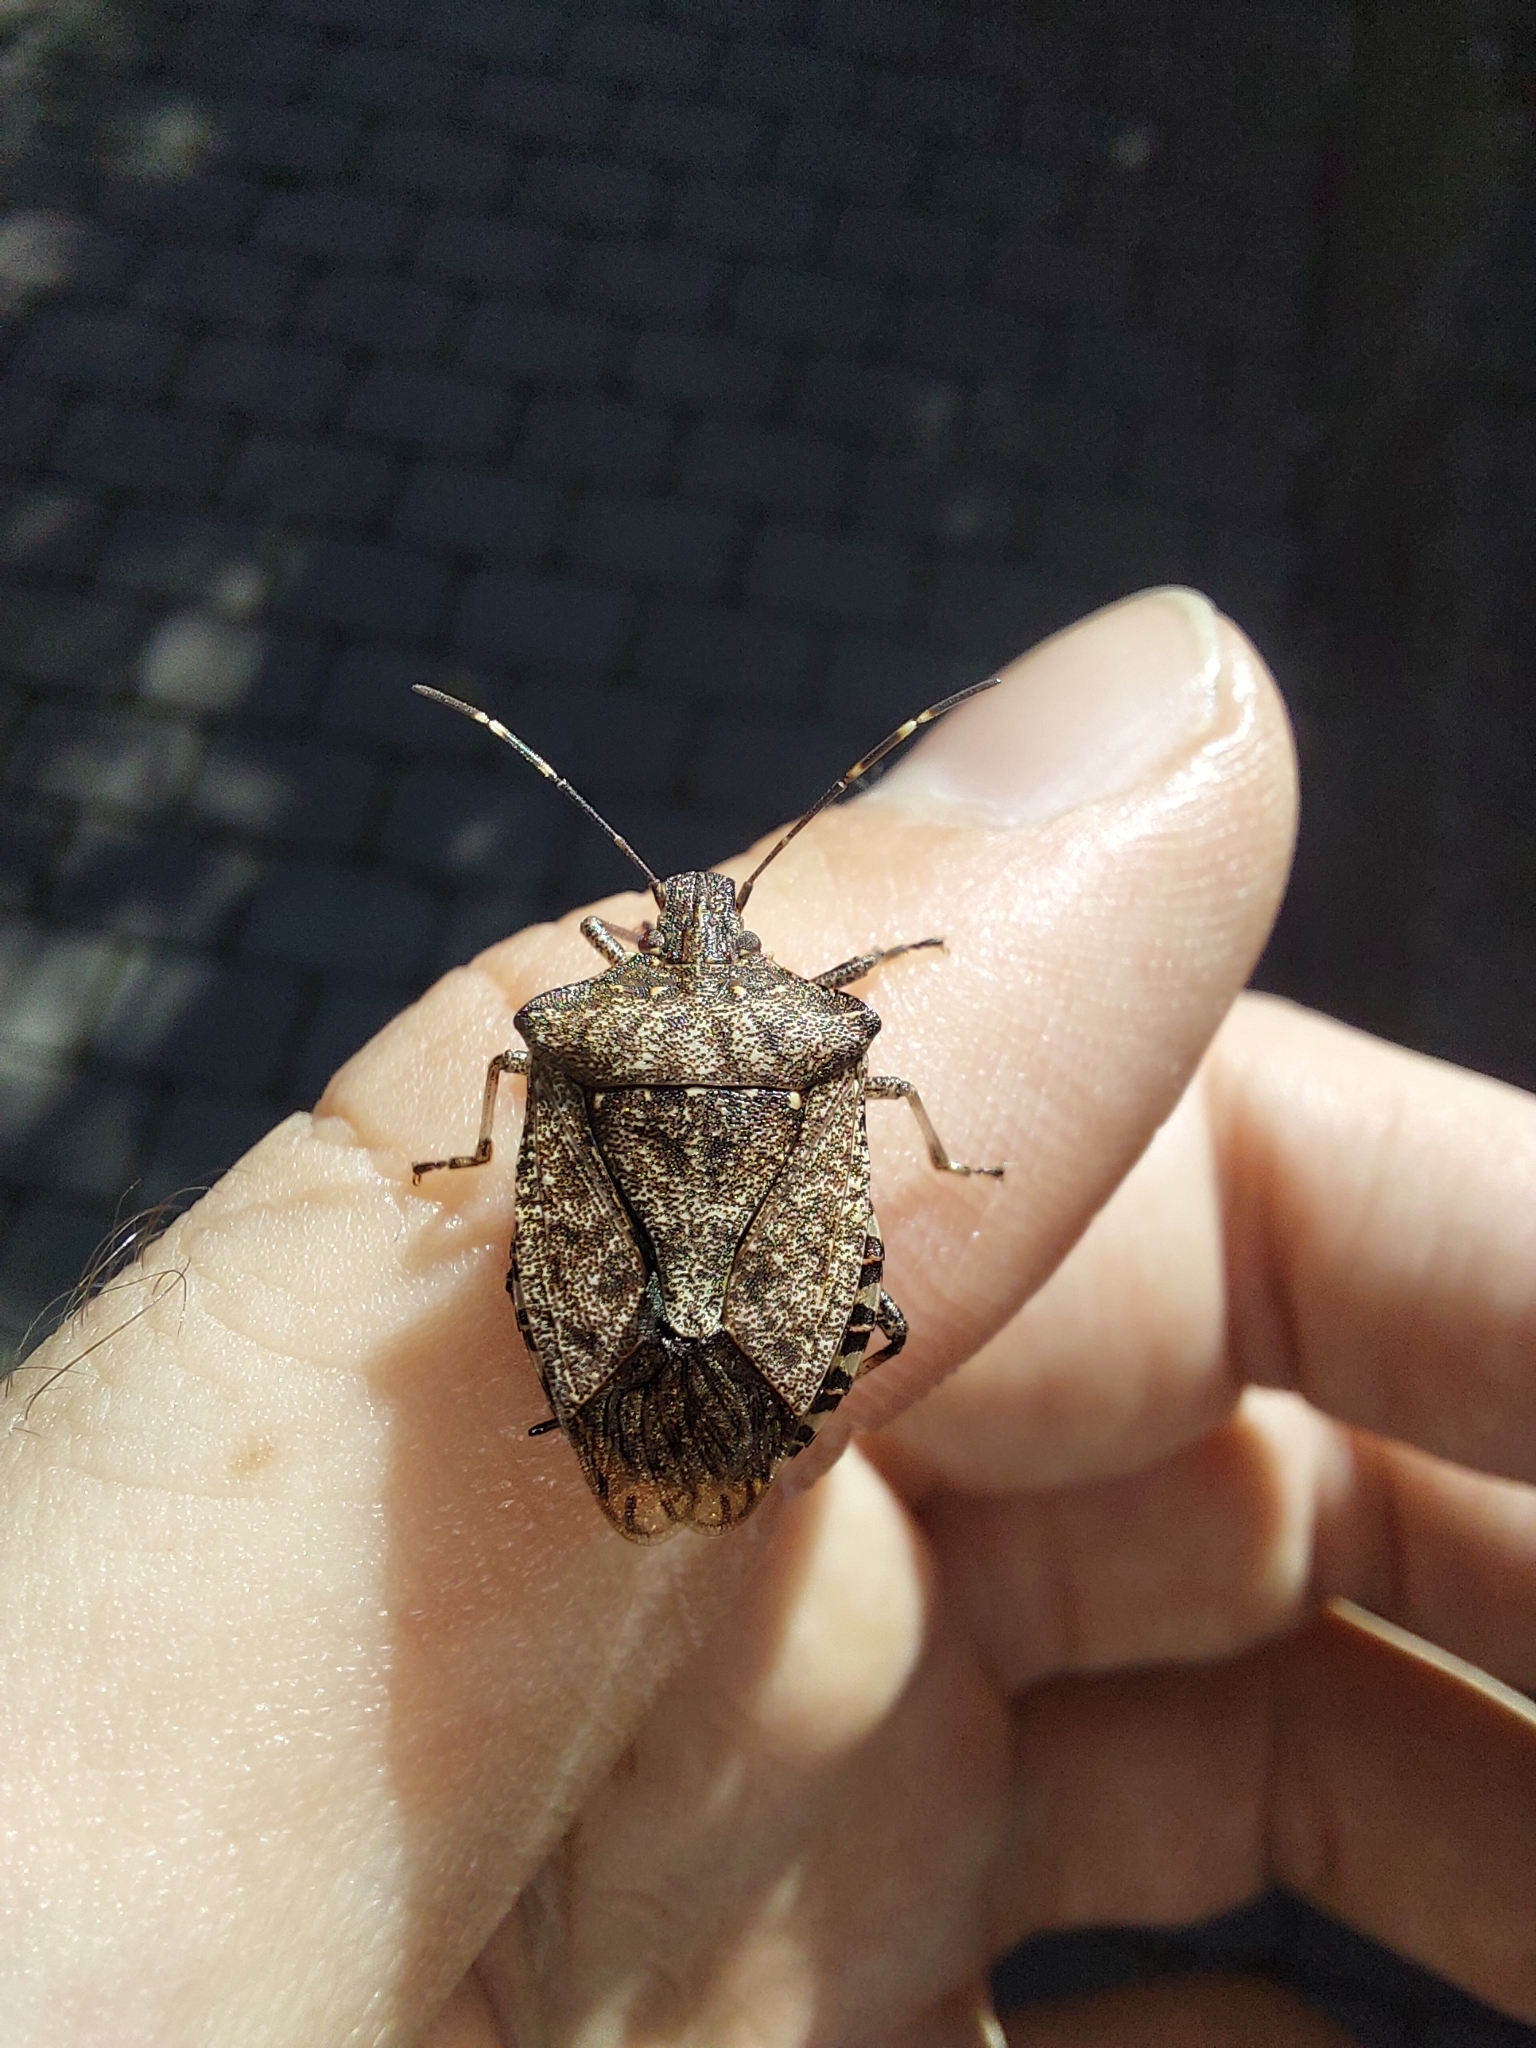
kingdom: Animalia
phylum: Arthropoda
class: Insecta
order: Hemiptera
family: Pentatomidae
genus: Halyomorpha
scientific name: Halyomorpha halys
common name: Brown marmorated stink bug
